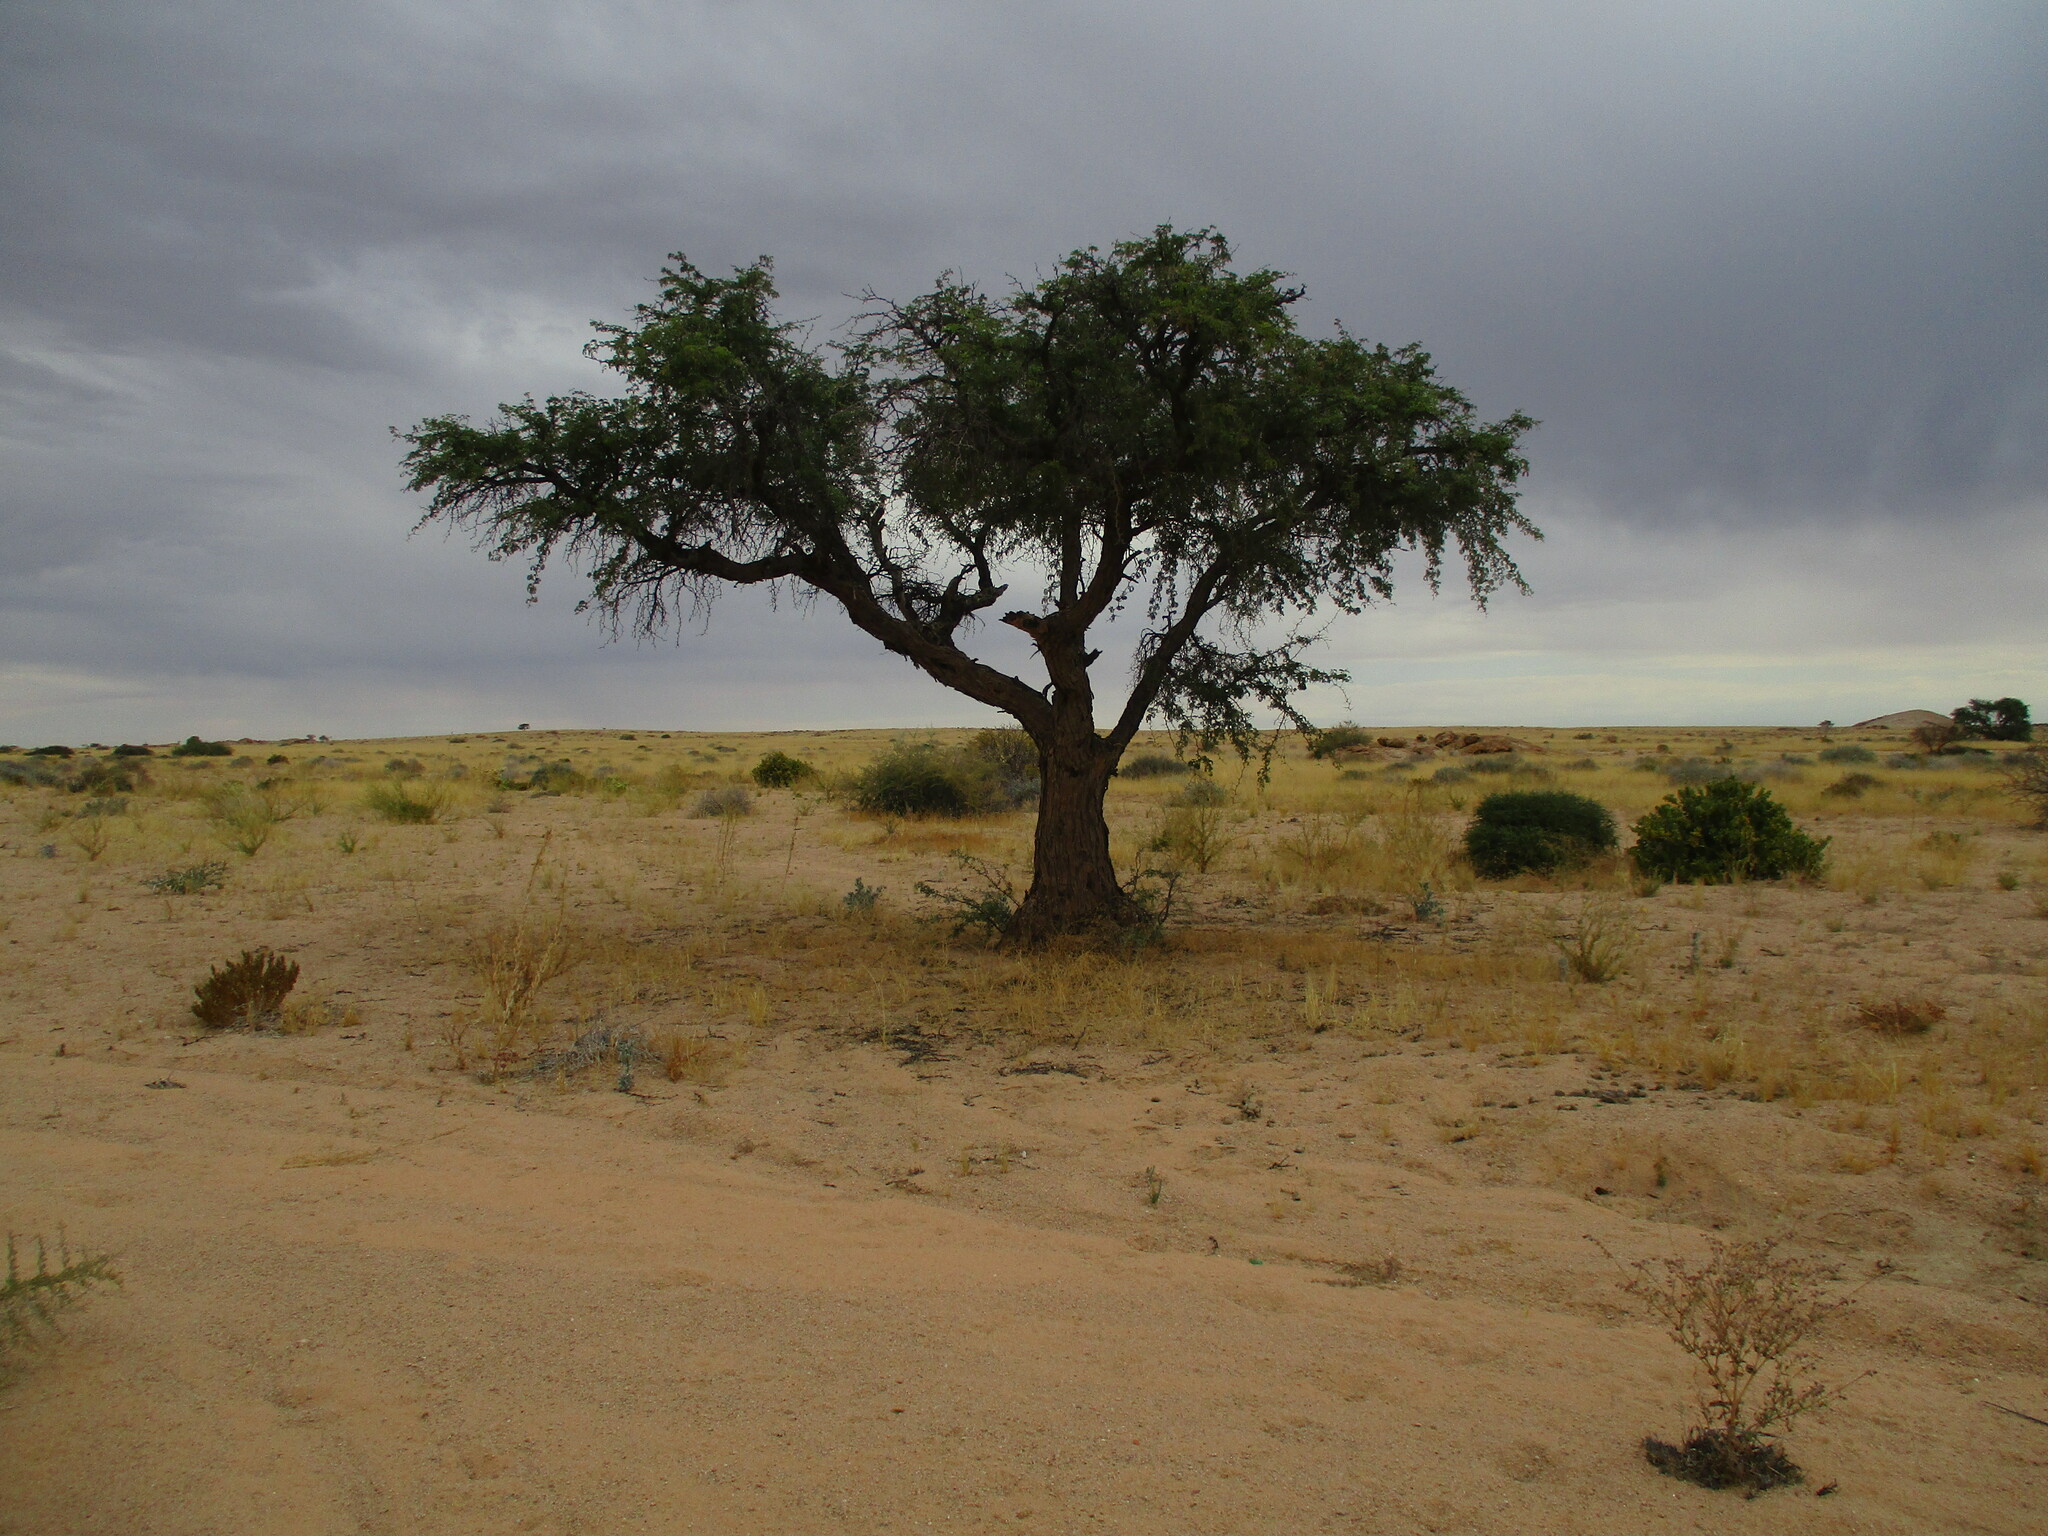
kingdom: Plantae
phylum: Tracheophyta
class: Magnoliopsida
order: Fabales
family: Fabaceae
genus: Vachellia
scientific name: Vachellia erioloba
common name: Camel thorn
